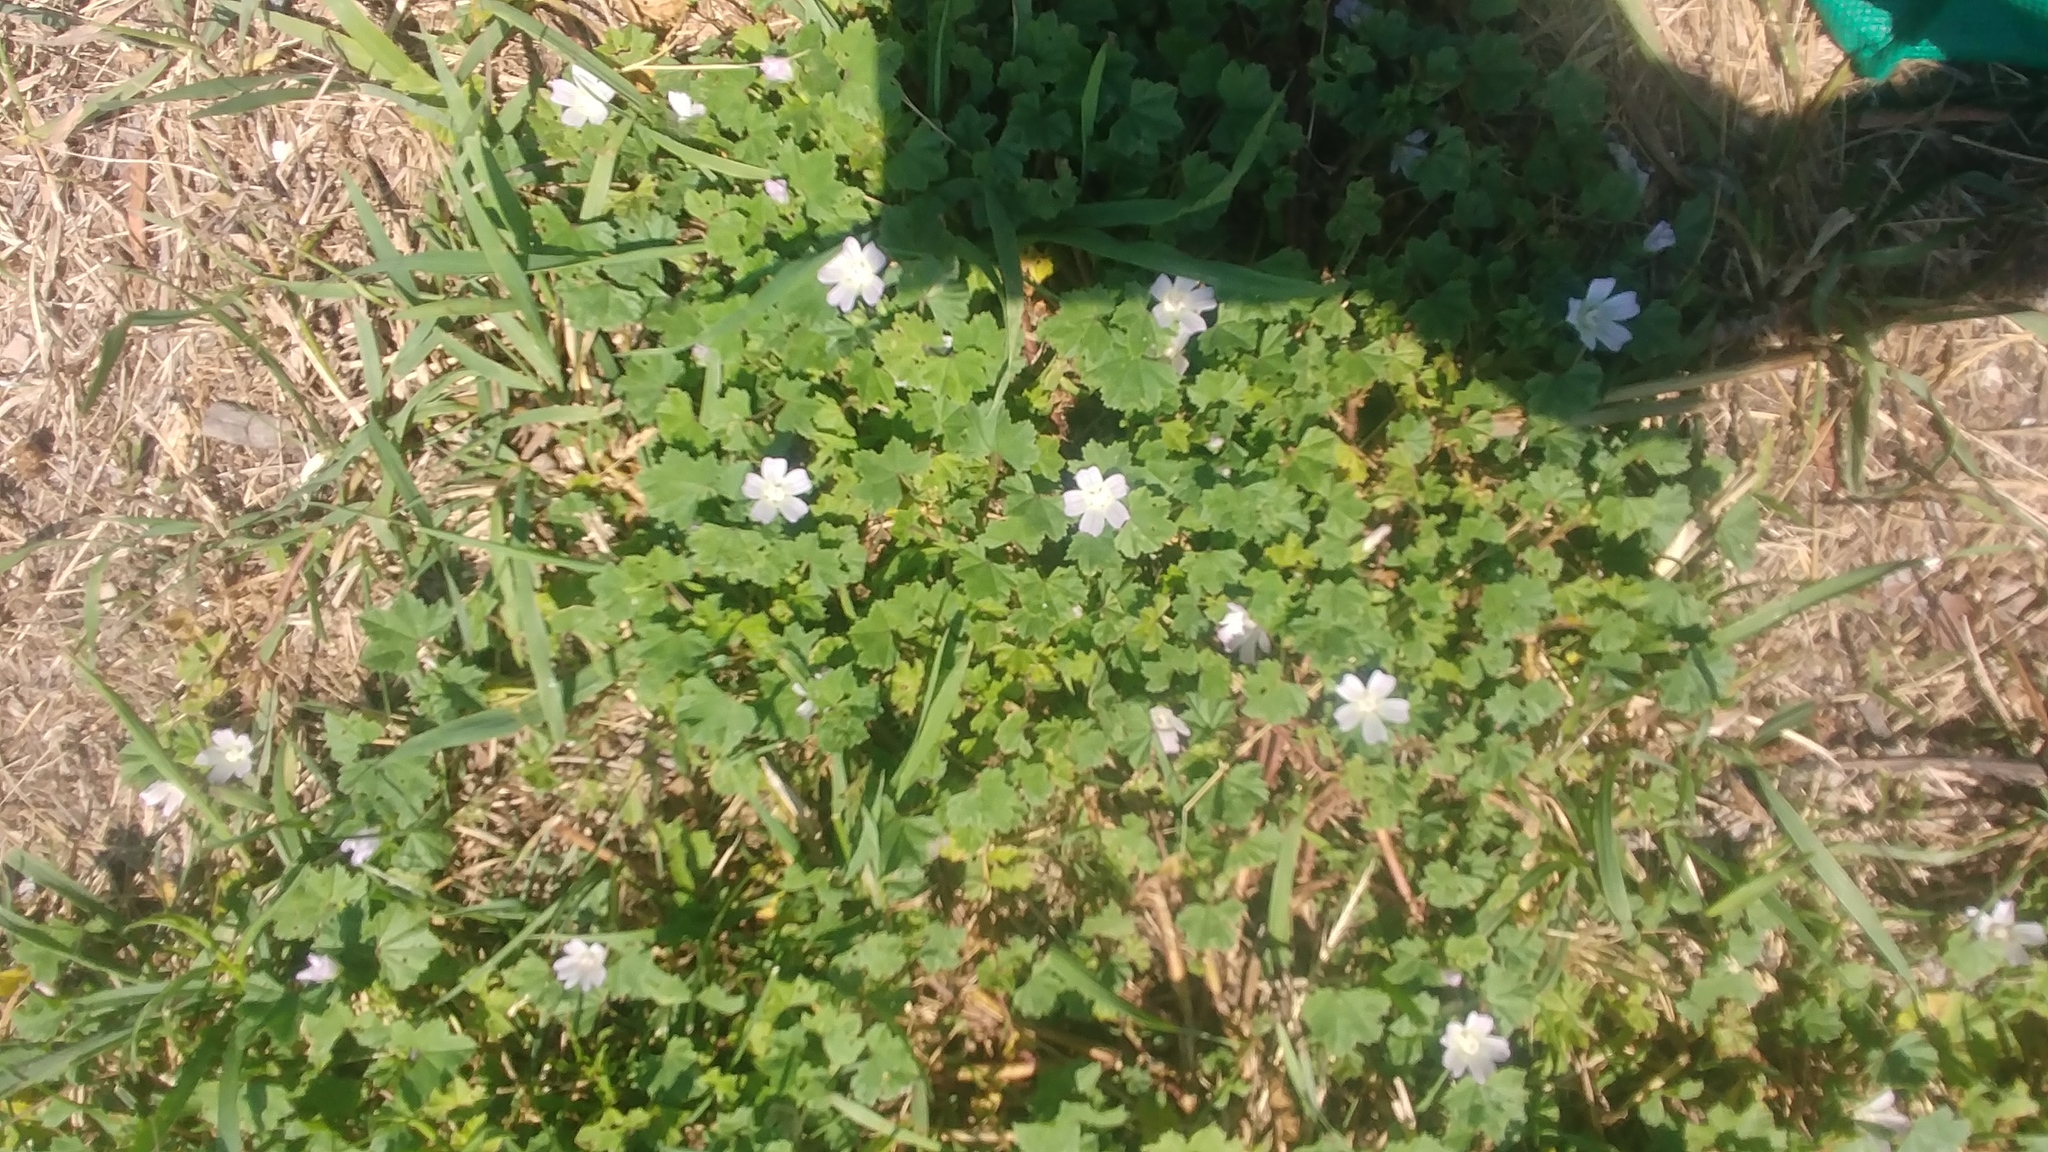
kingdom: Plantae
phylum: Tracheophyta
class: Magnoliopsida
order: Malvales
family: Malvaceae
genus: Malva
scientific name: Malva neglecta
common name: Common mallow
